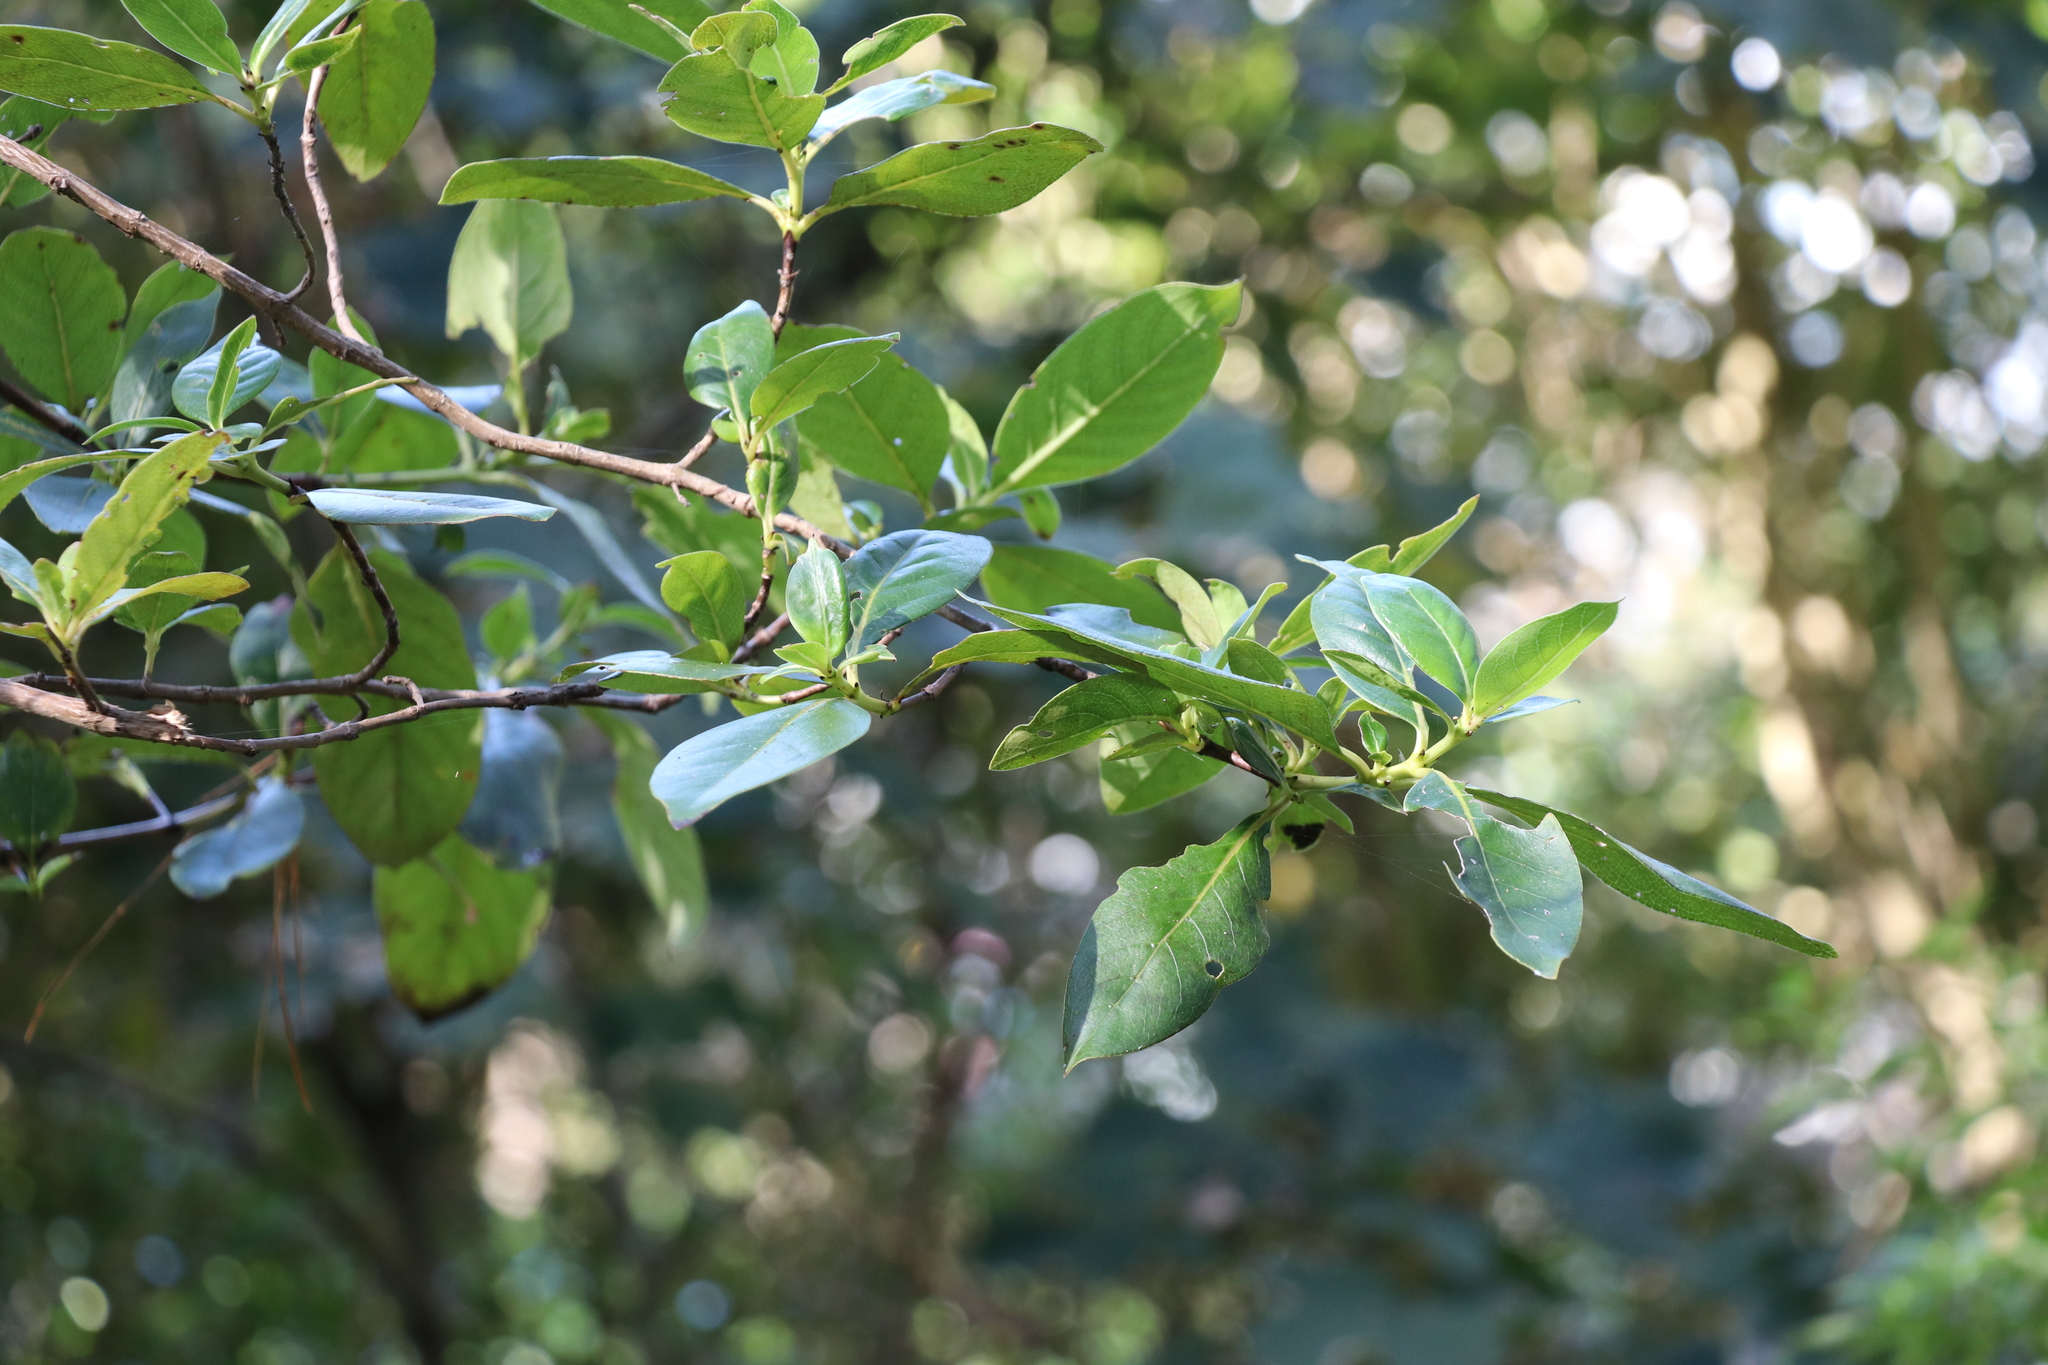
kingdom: Plantae
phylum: Tracheophyta
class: Magnoliopsida
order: Gentianales
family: Rubiaceae
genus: Coprosma
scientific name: Coprosma robusta
